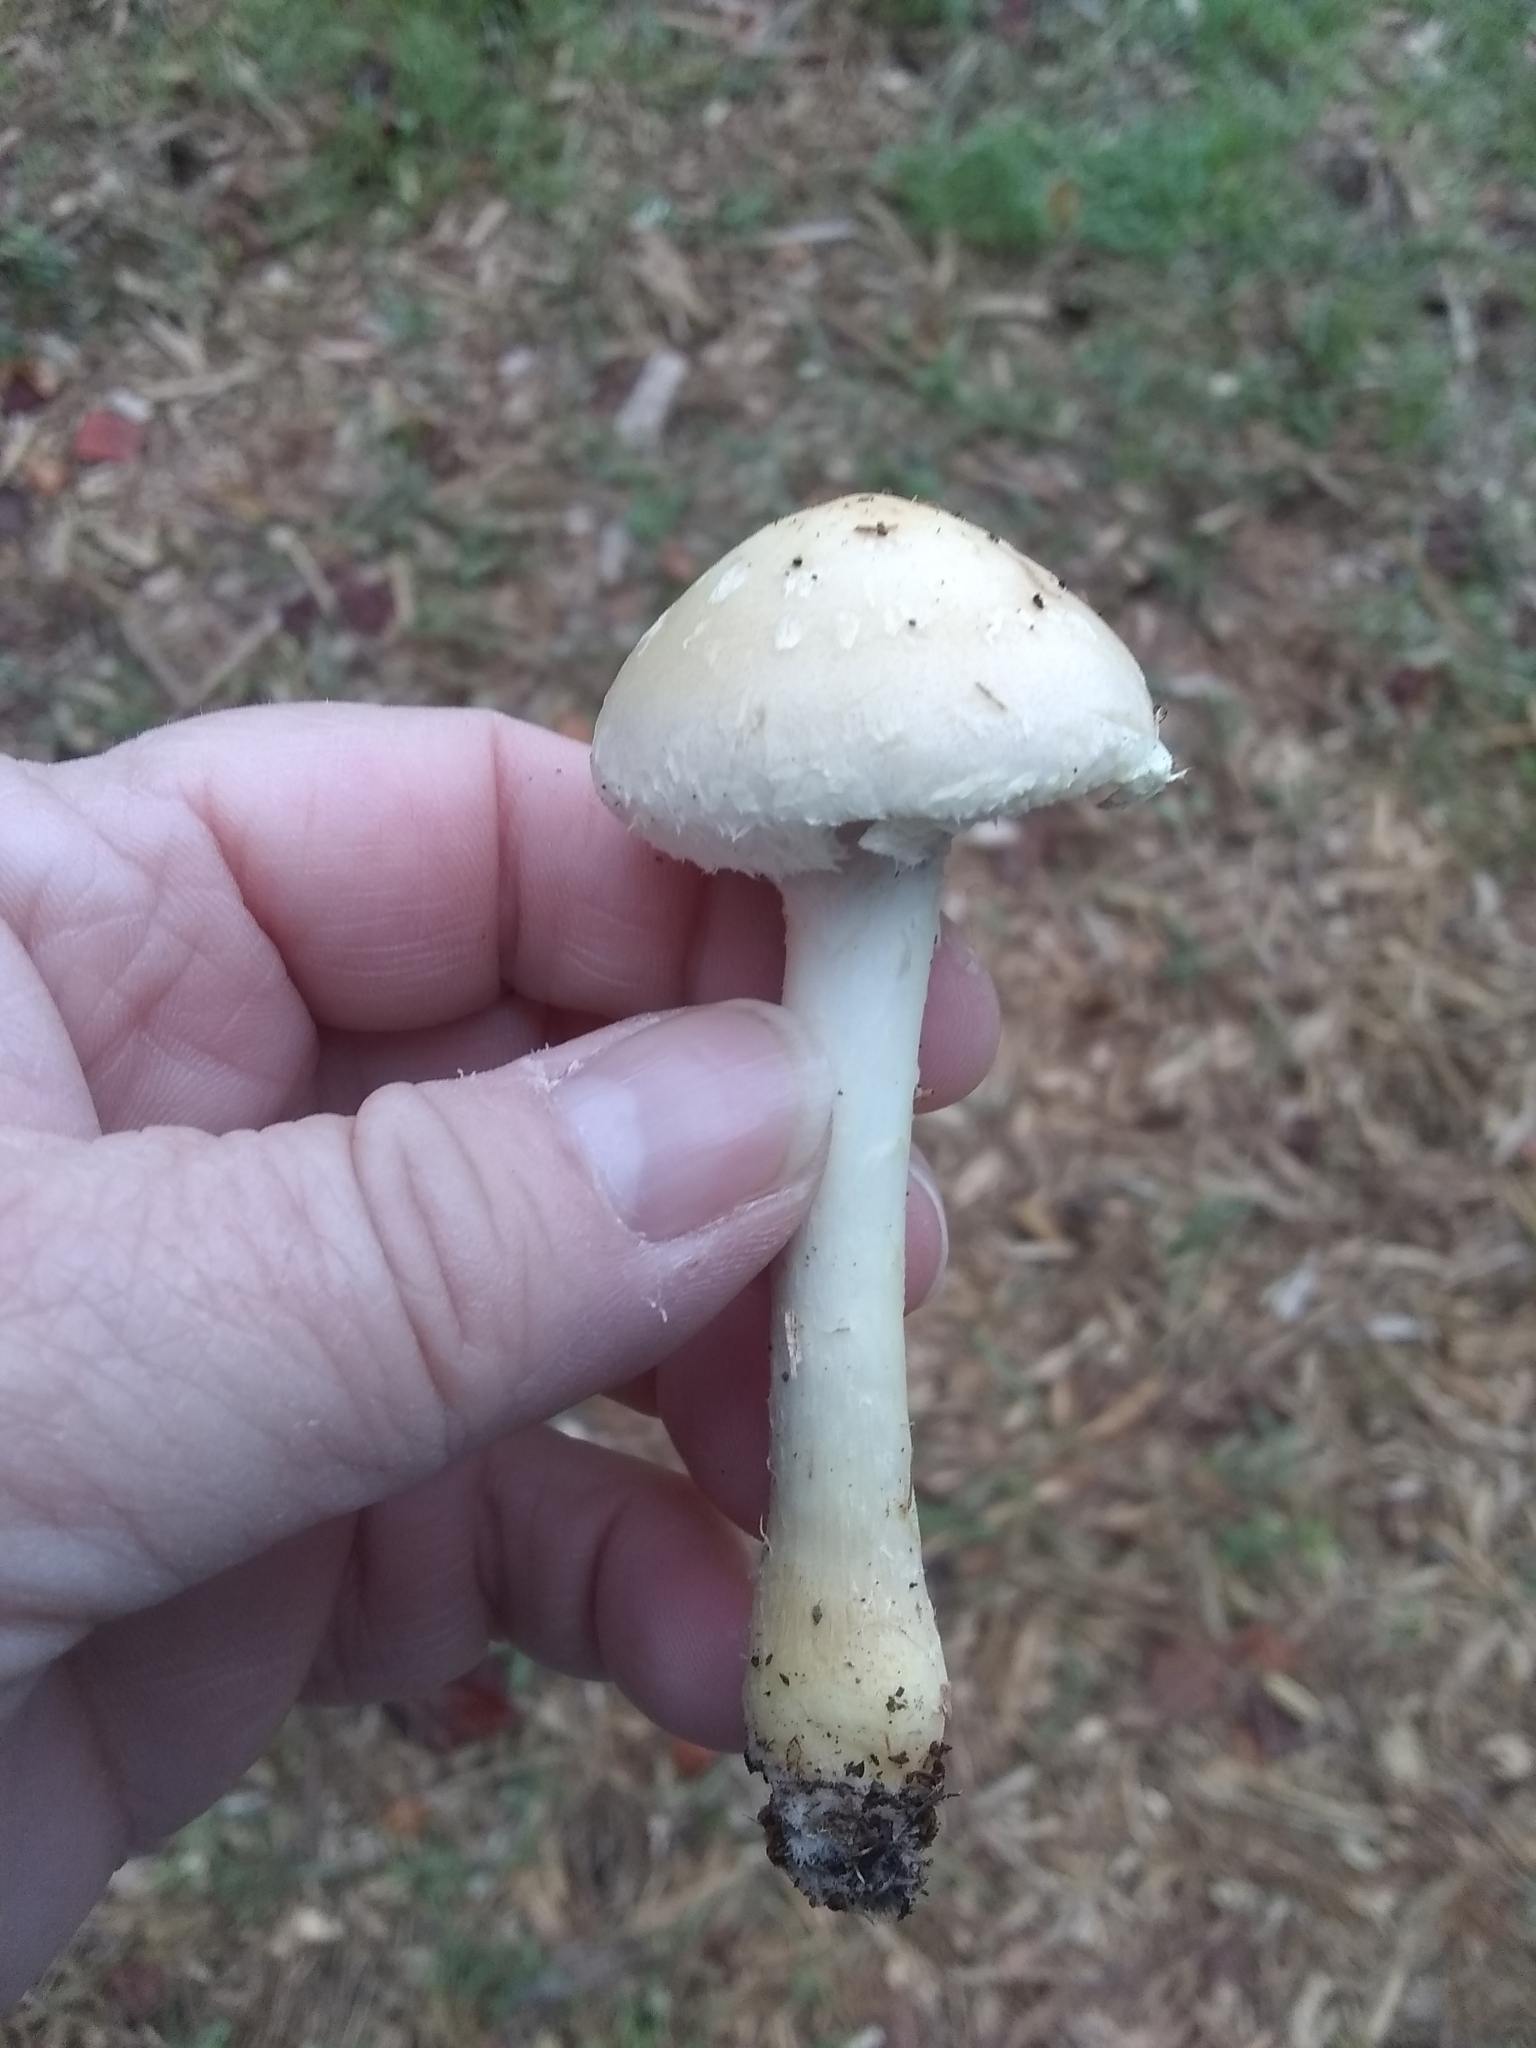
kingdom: Fungi
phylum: Basidiomycota
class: Agaricomycetes
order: Agaricales
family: Strophariaceae
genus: Leratiomyces
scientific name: Leratiomyces percevalii
